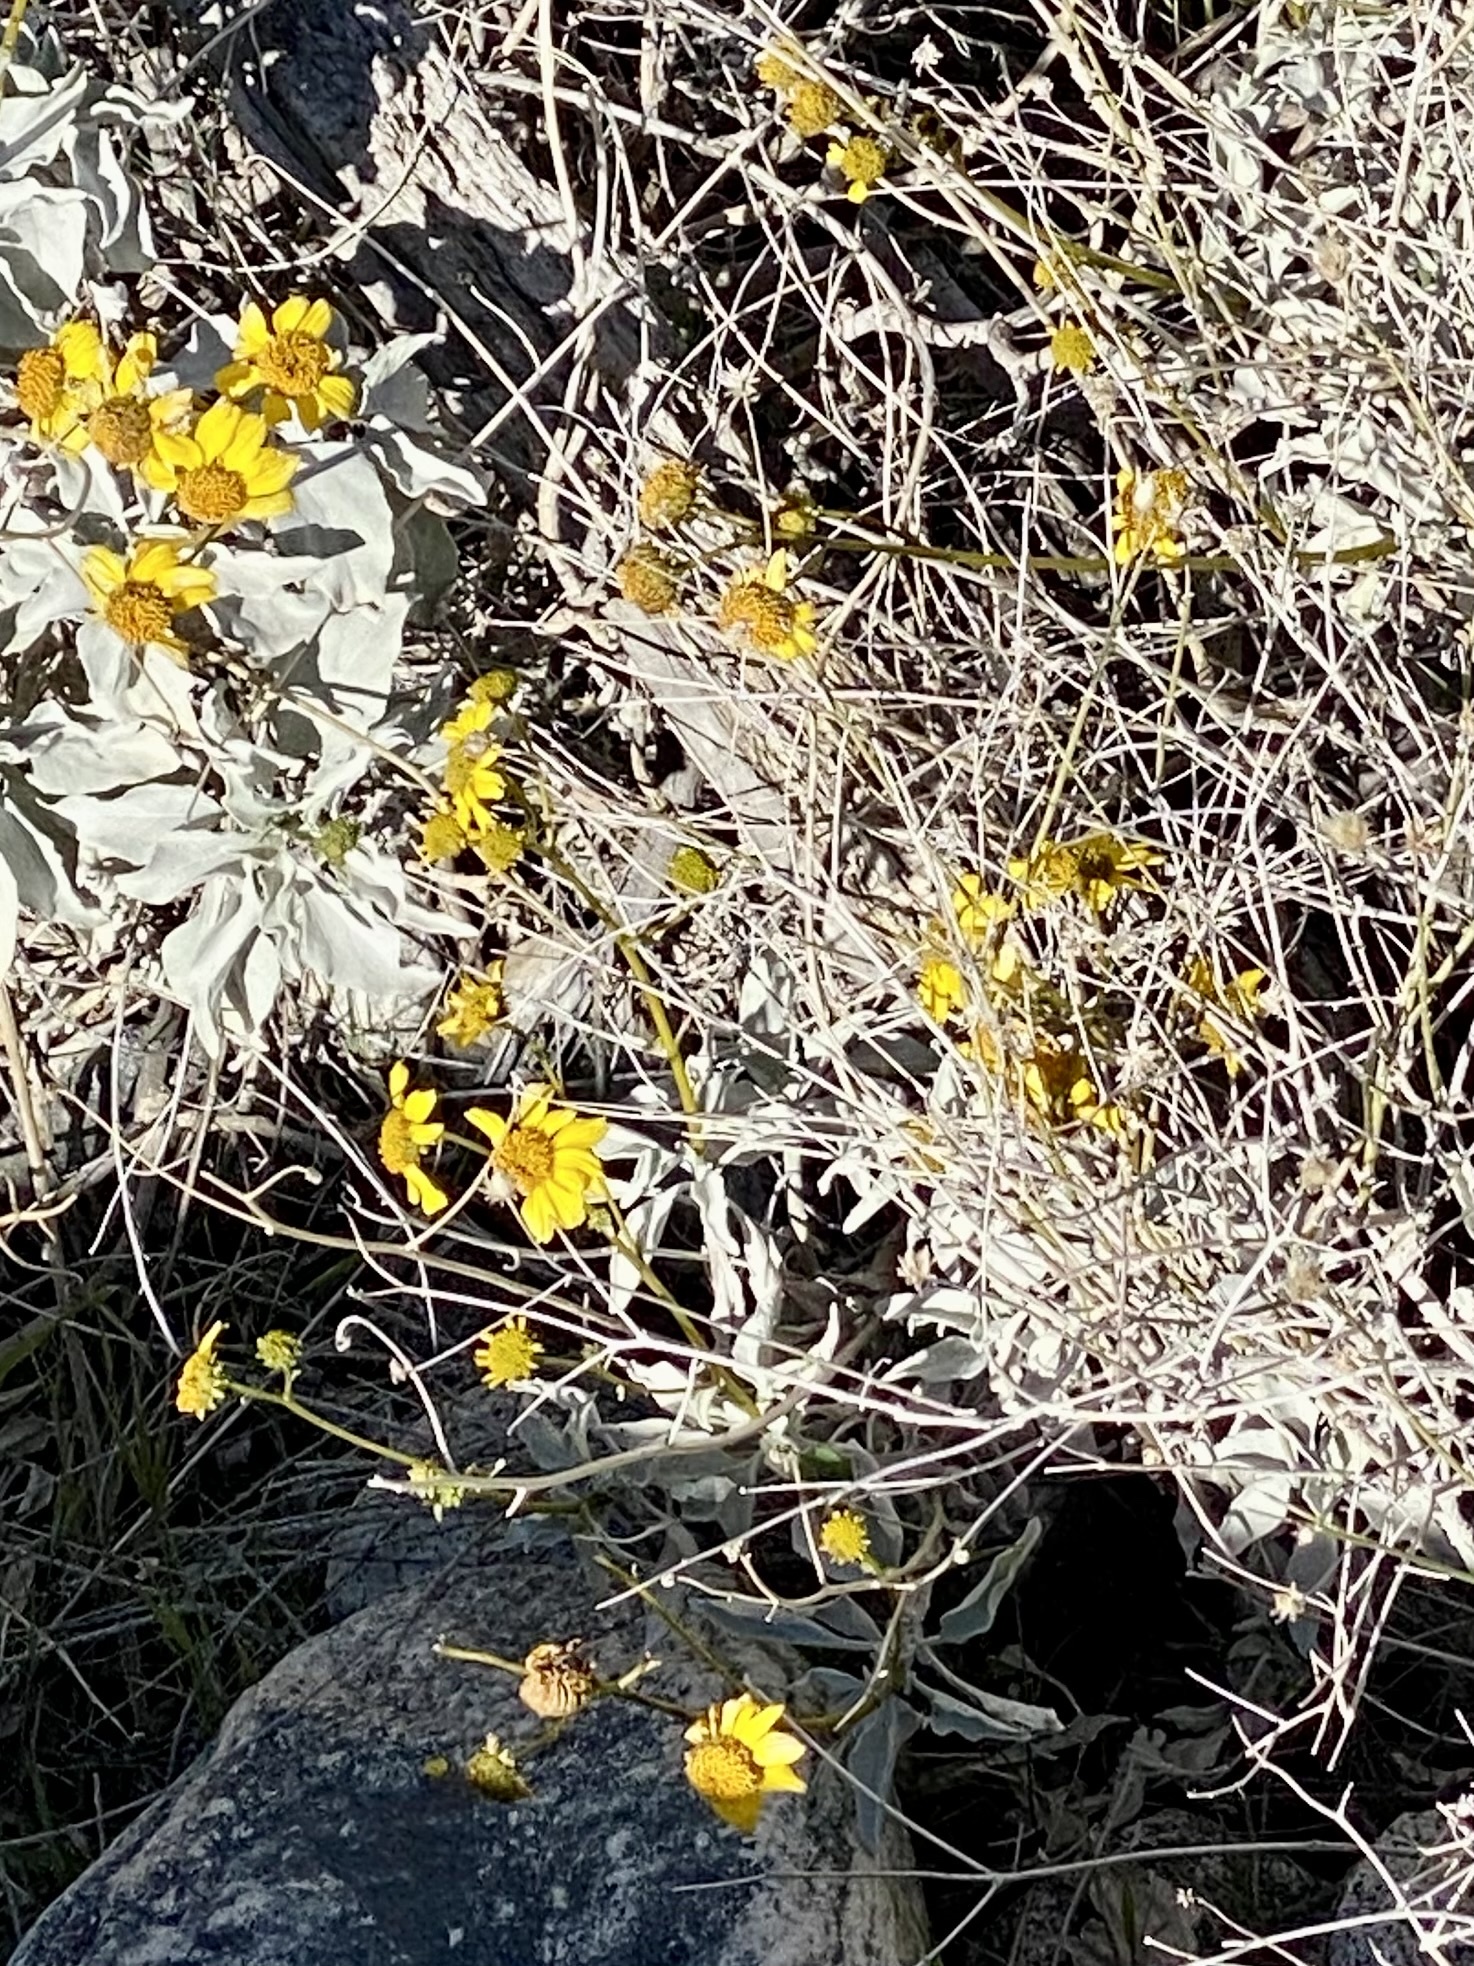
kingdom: Plantae
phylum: Tracheophyta
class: Magnoliopsida
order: Asterales
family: Asteraceae
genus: Encelia
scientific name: Encelia farinosa
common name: Brittlebush
